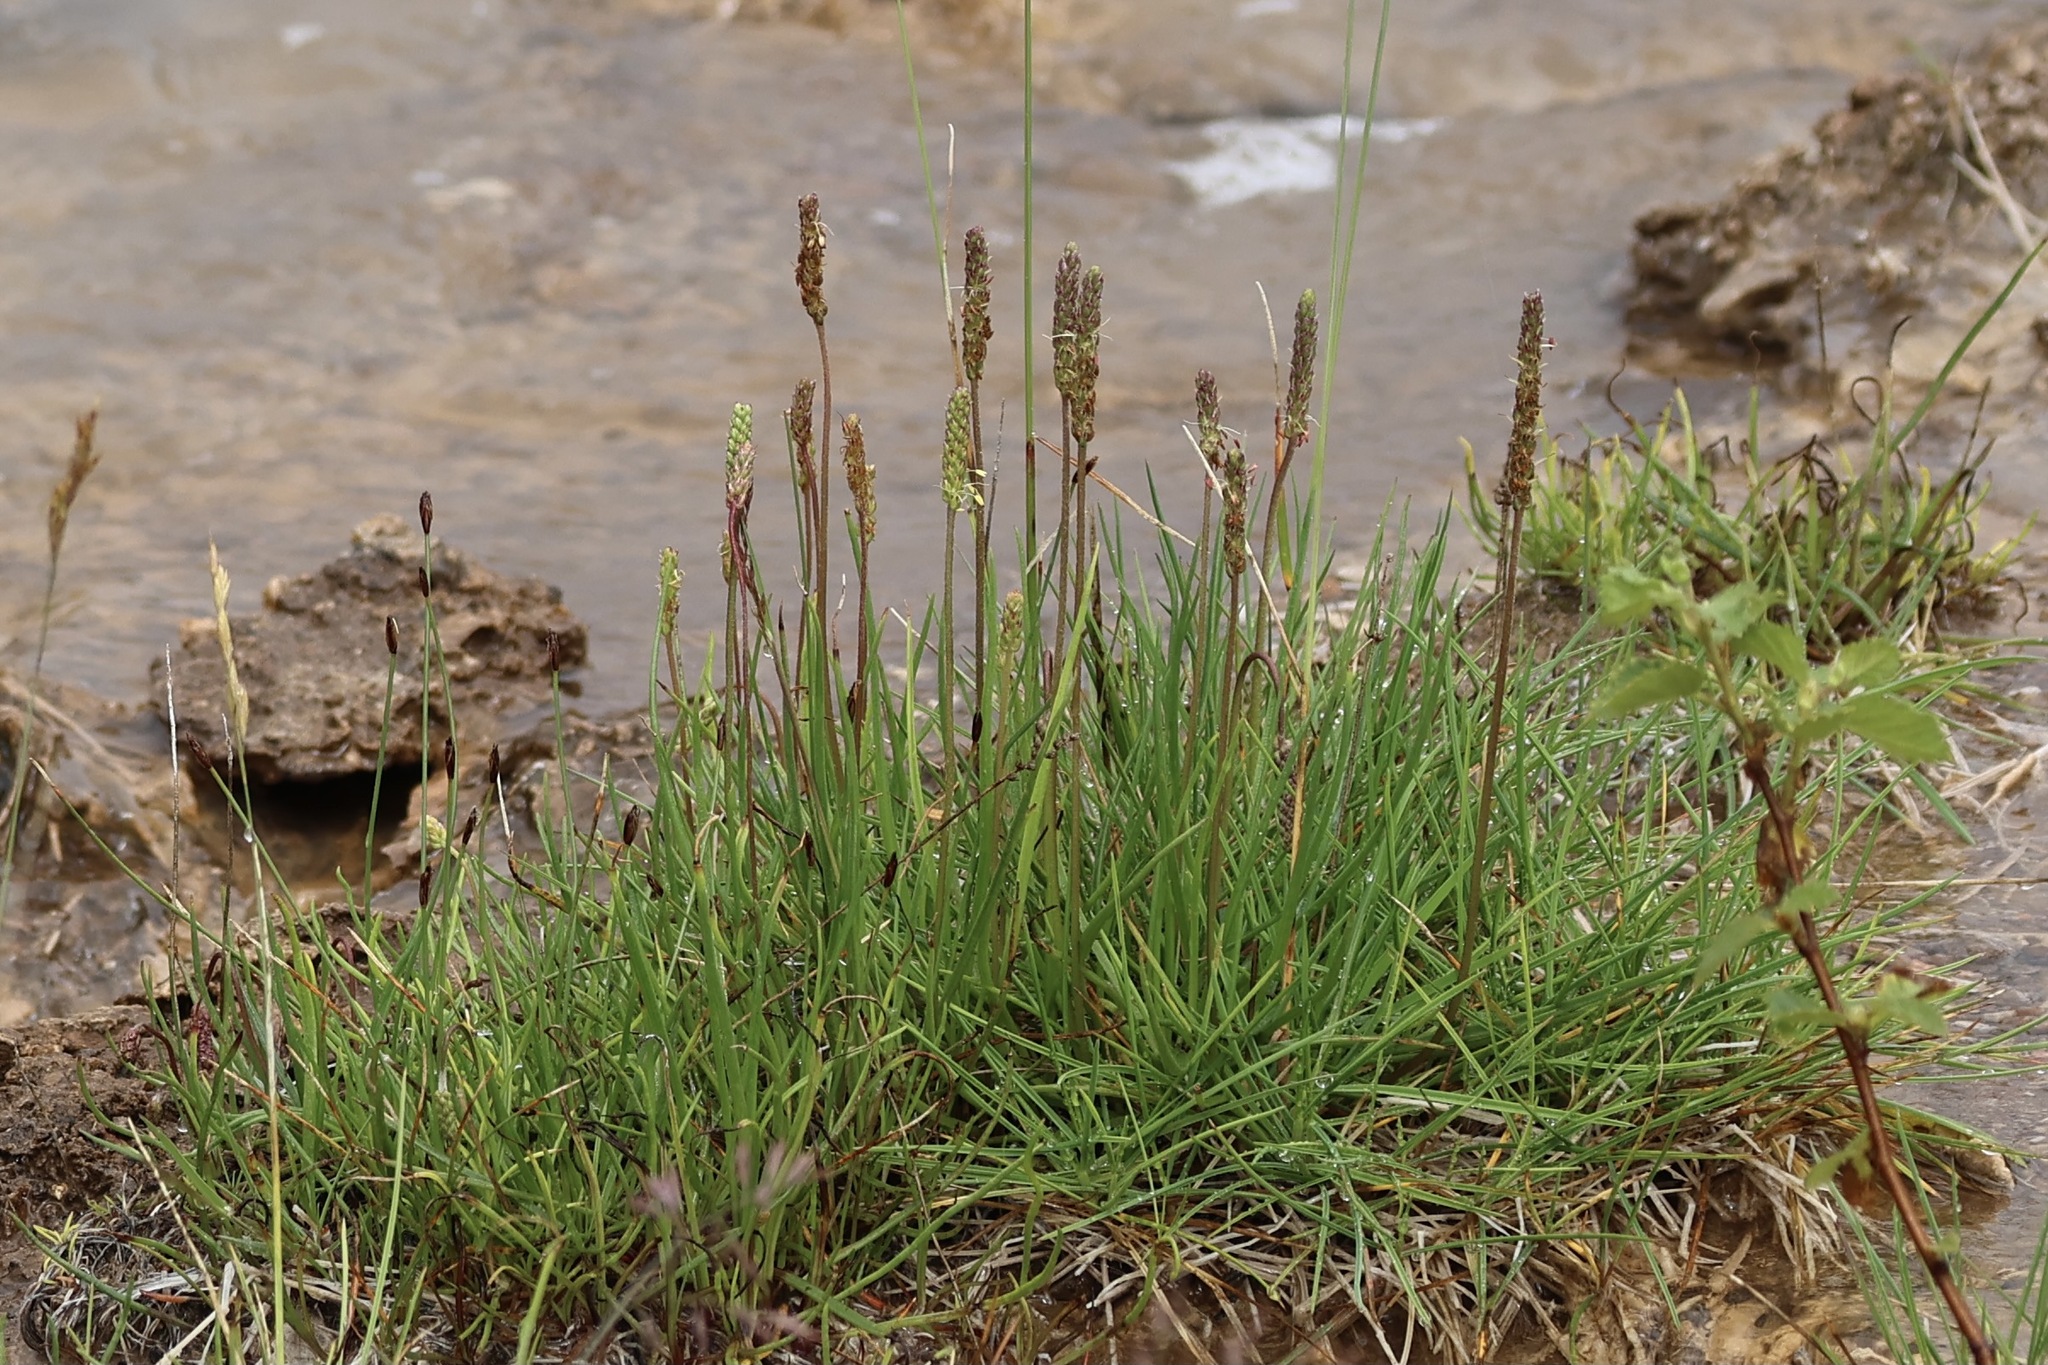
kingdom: Plantae
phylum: Tracheophyta
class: Magnoliopsida
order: Lamiales
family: Plantaginaceae
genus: Plantago
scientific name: Plantago maritima
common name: Sea plantain
